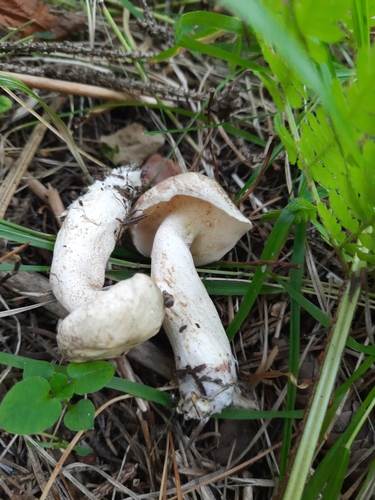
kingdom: Fungi
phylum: Basidiomycota
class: Agaricomycetes
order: Boletales
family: Suillaceae
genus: Suillus
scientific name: Suillus placidus
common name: Slippery white bolete
